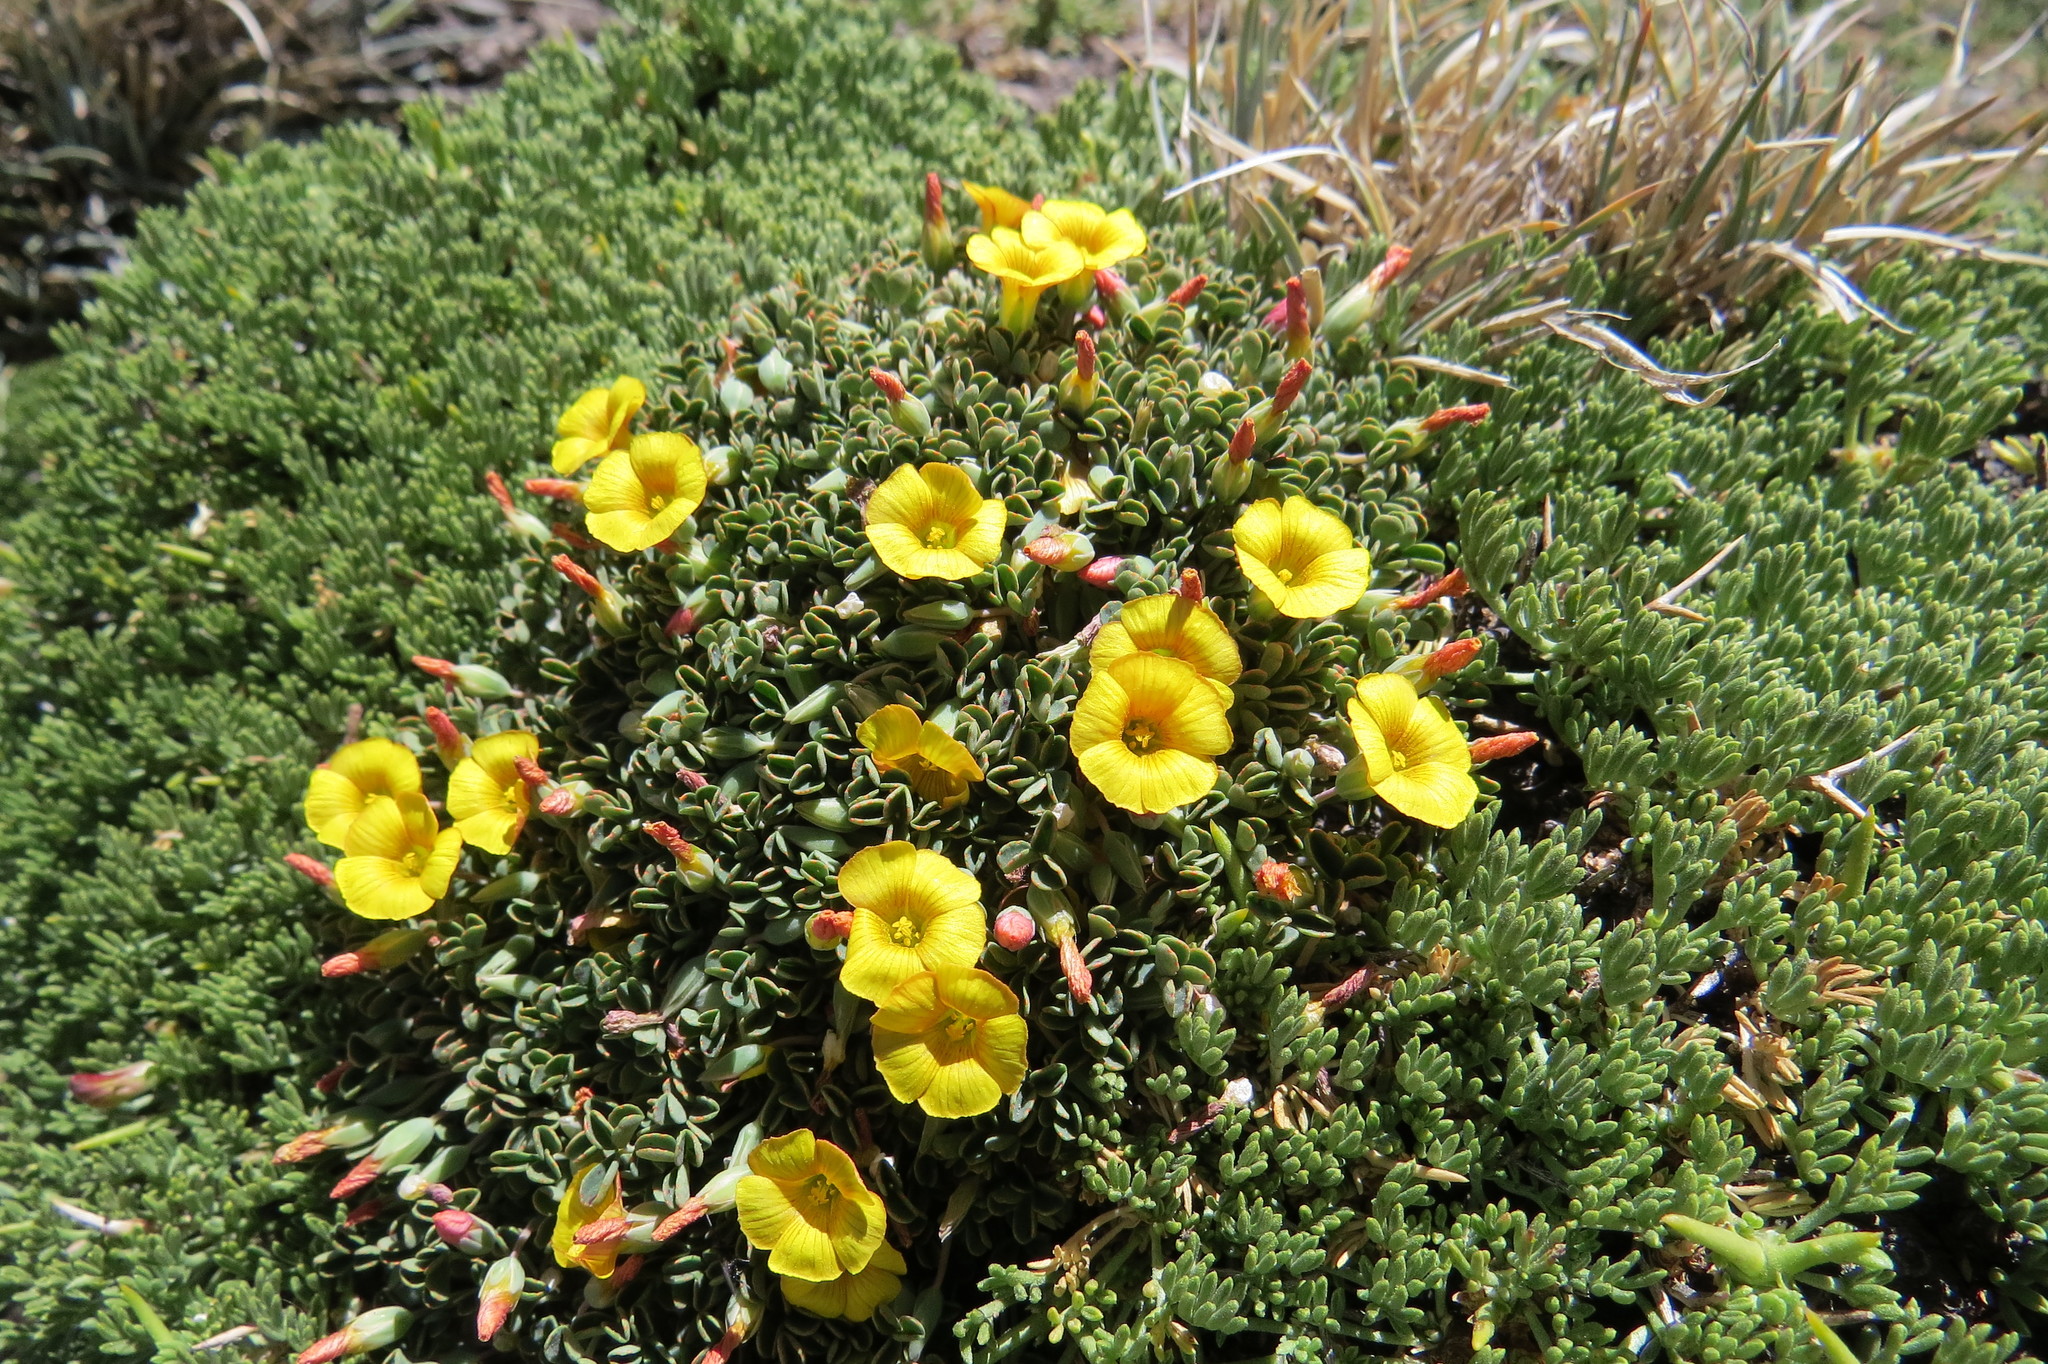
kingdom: Plantae
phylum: Tracheophyta
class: Magnoliopsida
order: Oxalidales
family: Oxalidaceae
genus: Oxalis
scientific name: Oxalis cinerea
